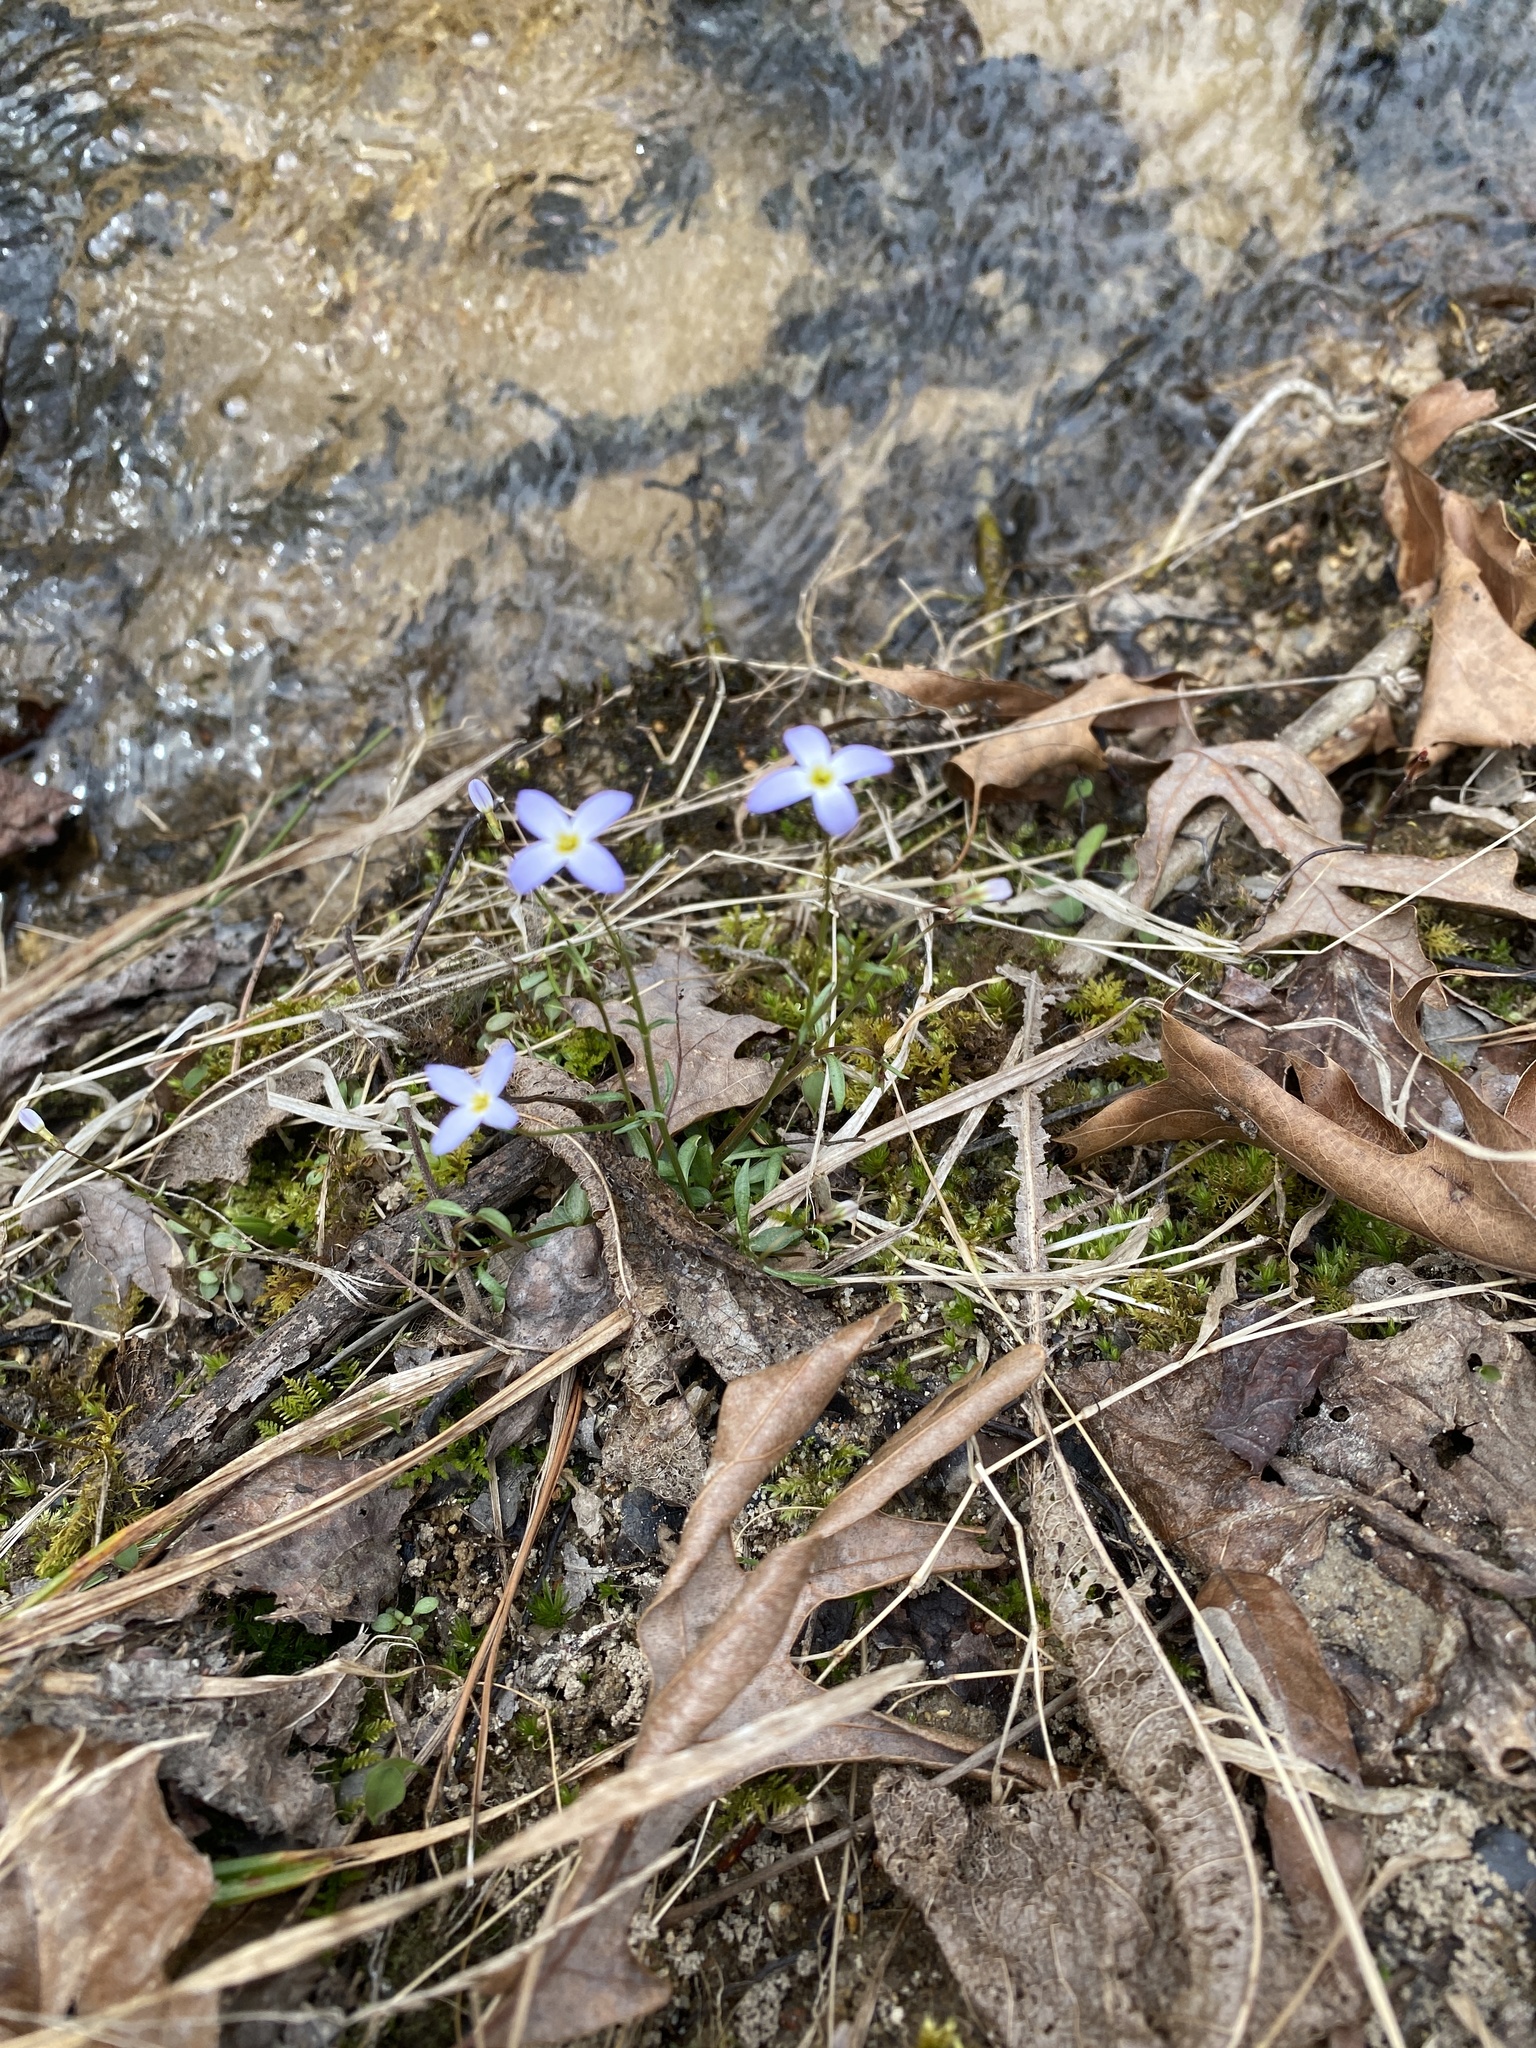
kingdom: Plantae
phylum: Tracheophyta
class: Magnoliopsida
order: Gentianales
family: Rubiaceae
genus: Houstonia
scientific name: Houstonia caerulea
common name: Bluets
